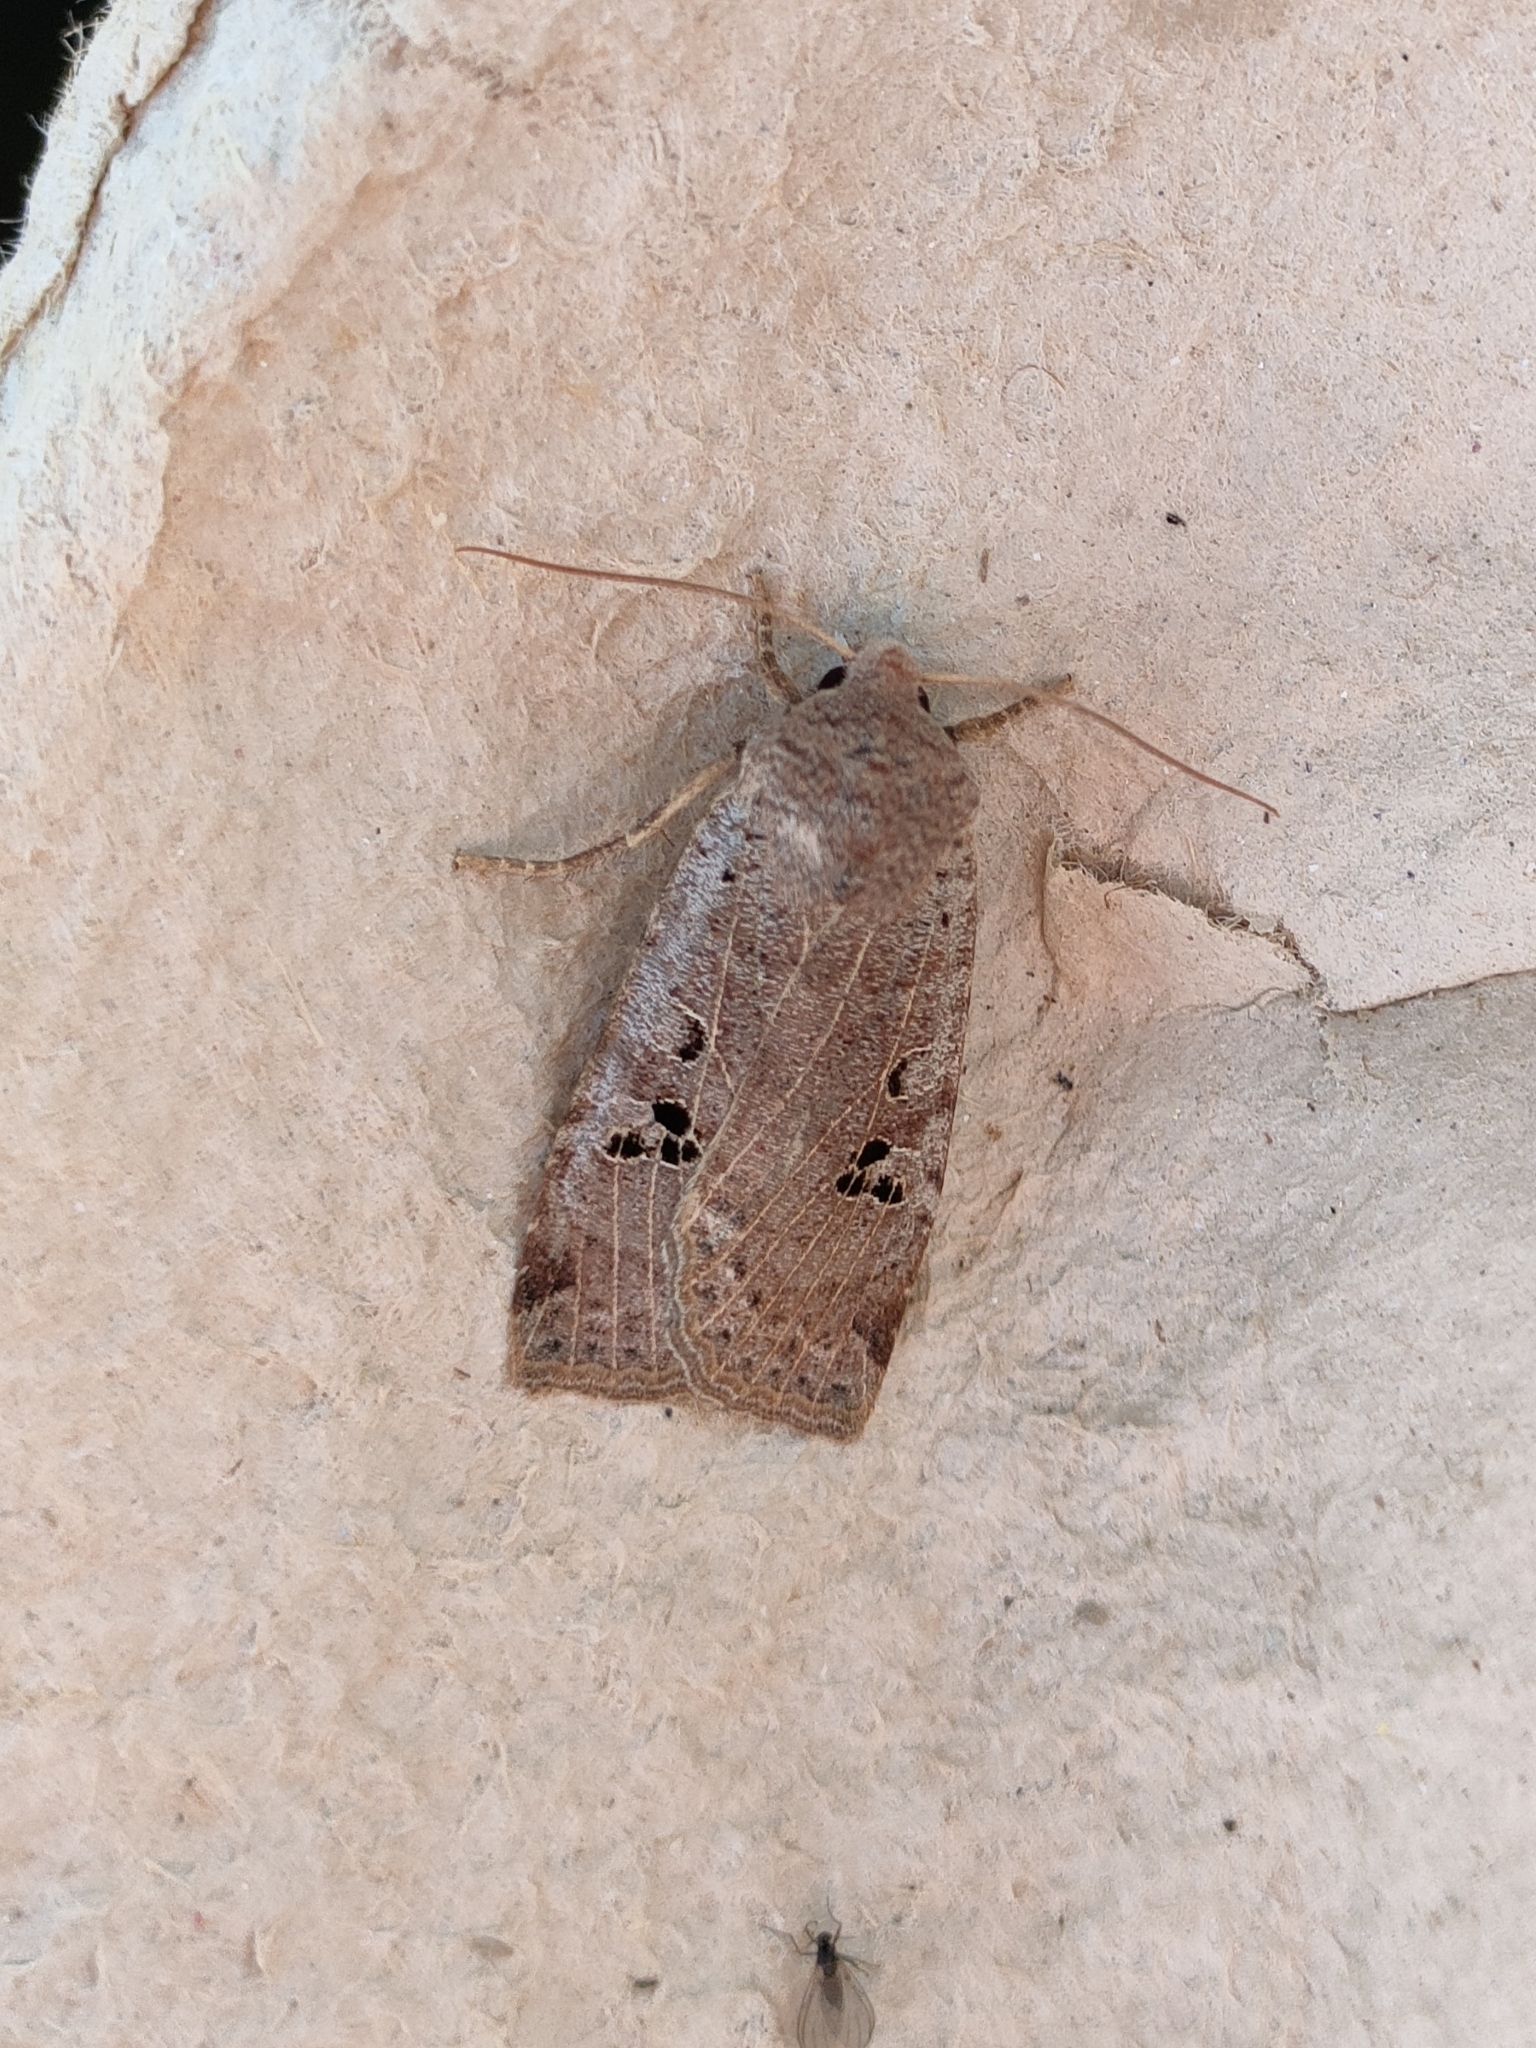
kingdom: Animalia
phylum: Arthropoda
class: Insecta
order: Lepidoptera
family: Noctuidae
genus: Conistra
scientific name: Conistra gallica
